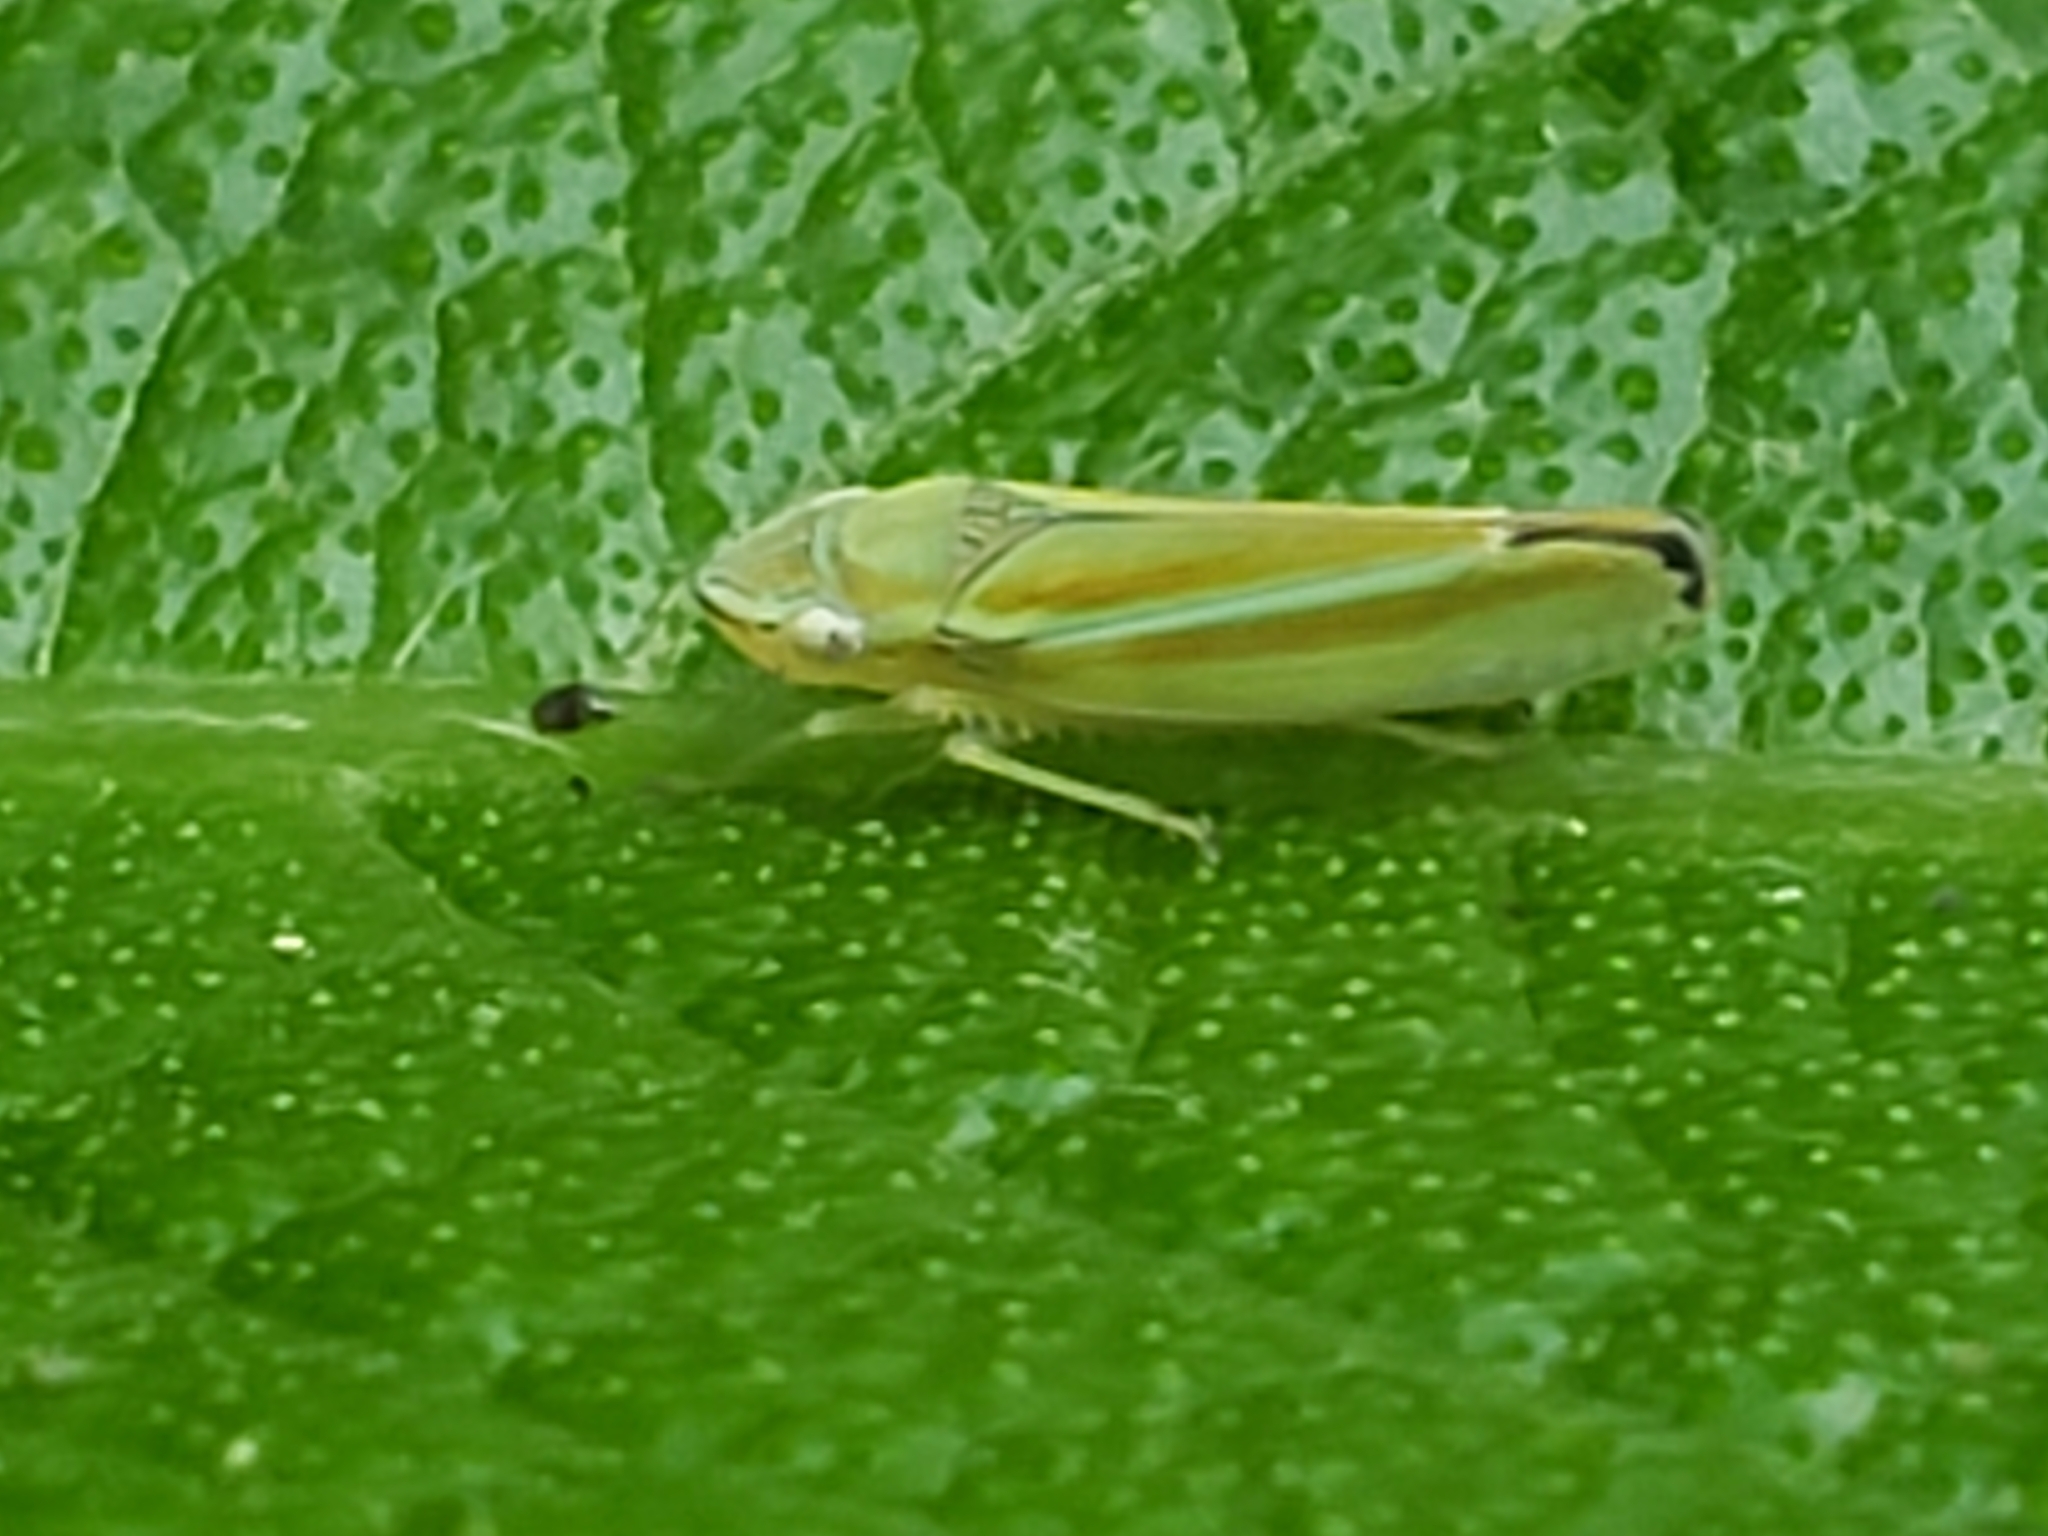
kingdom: Animalia
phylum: Arthropoda
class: Insecta
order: Hemiptera
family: Cicadellidae
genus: Graphocephala
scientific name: Graphocephala versuta
